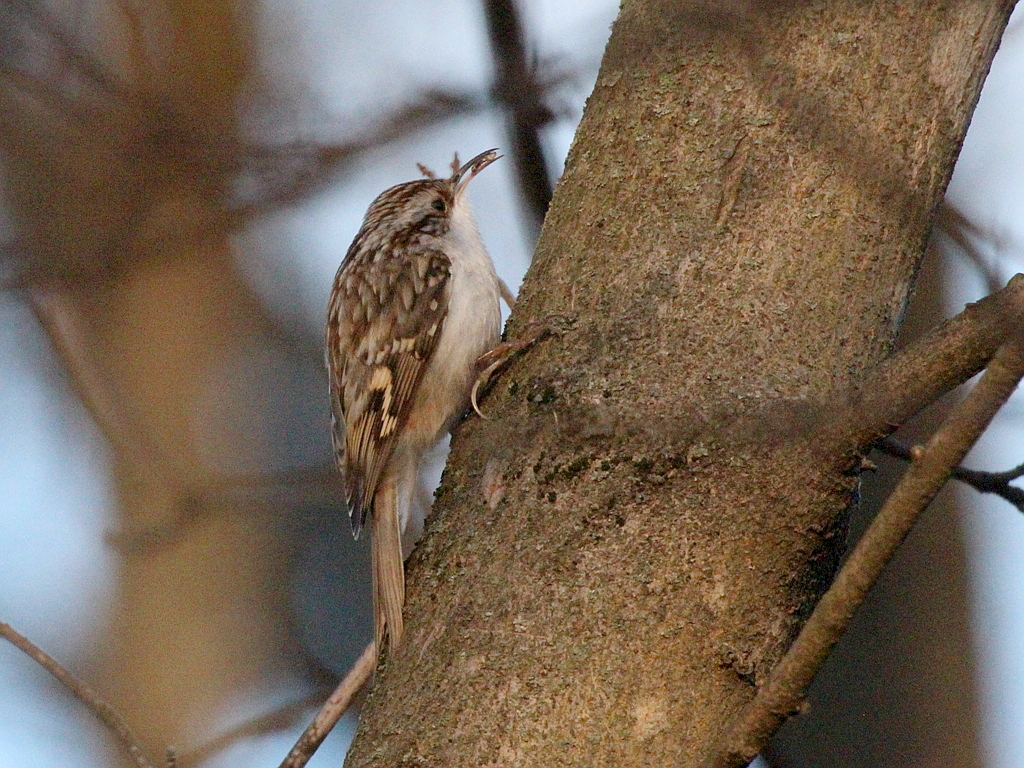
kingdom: Animalia
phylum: Chordata
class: Aves
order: Passeriformes
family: Certhiidae
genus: Certhia
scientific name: Certhia familiaris
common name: Eurasian treecreeper
